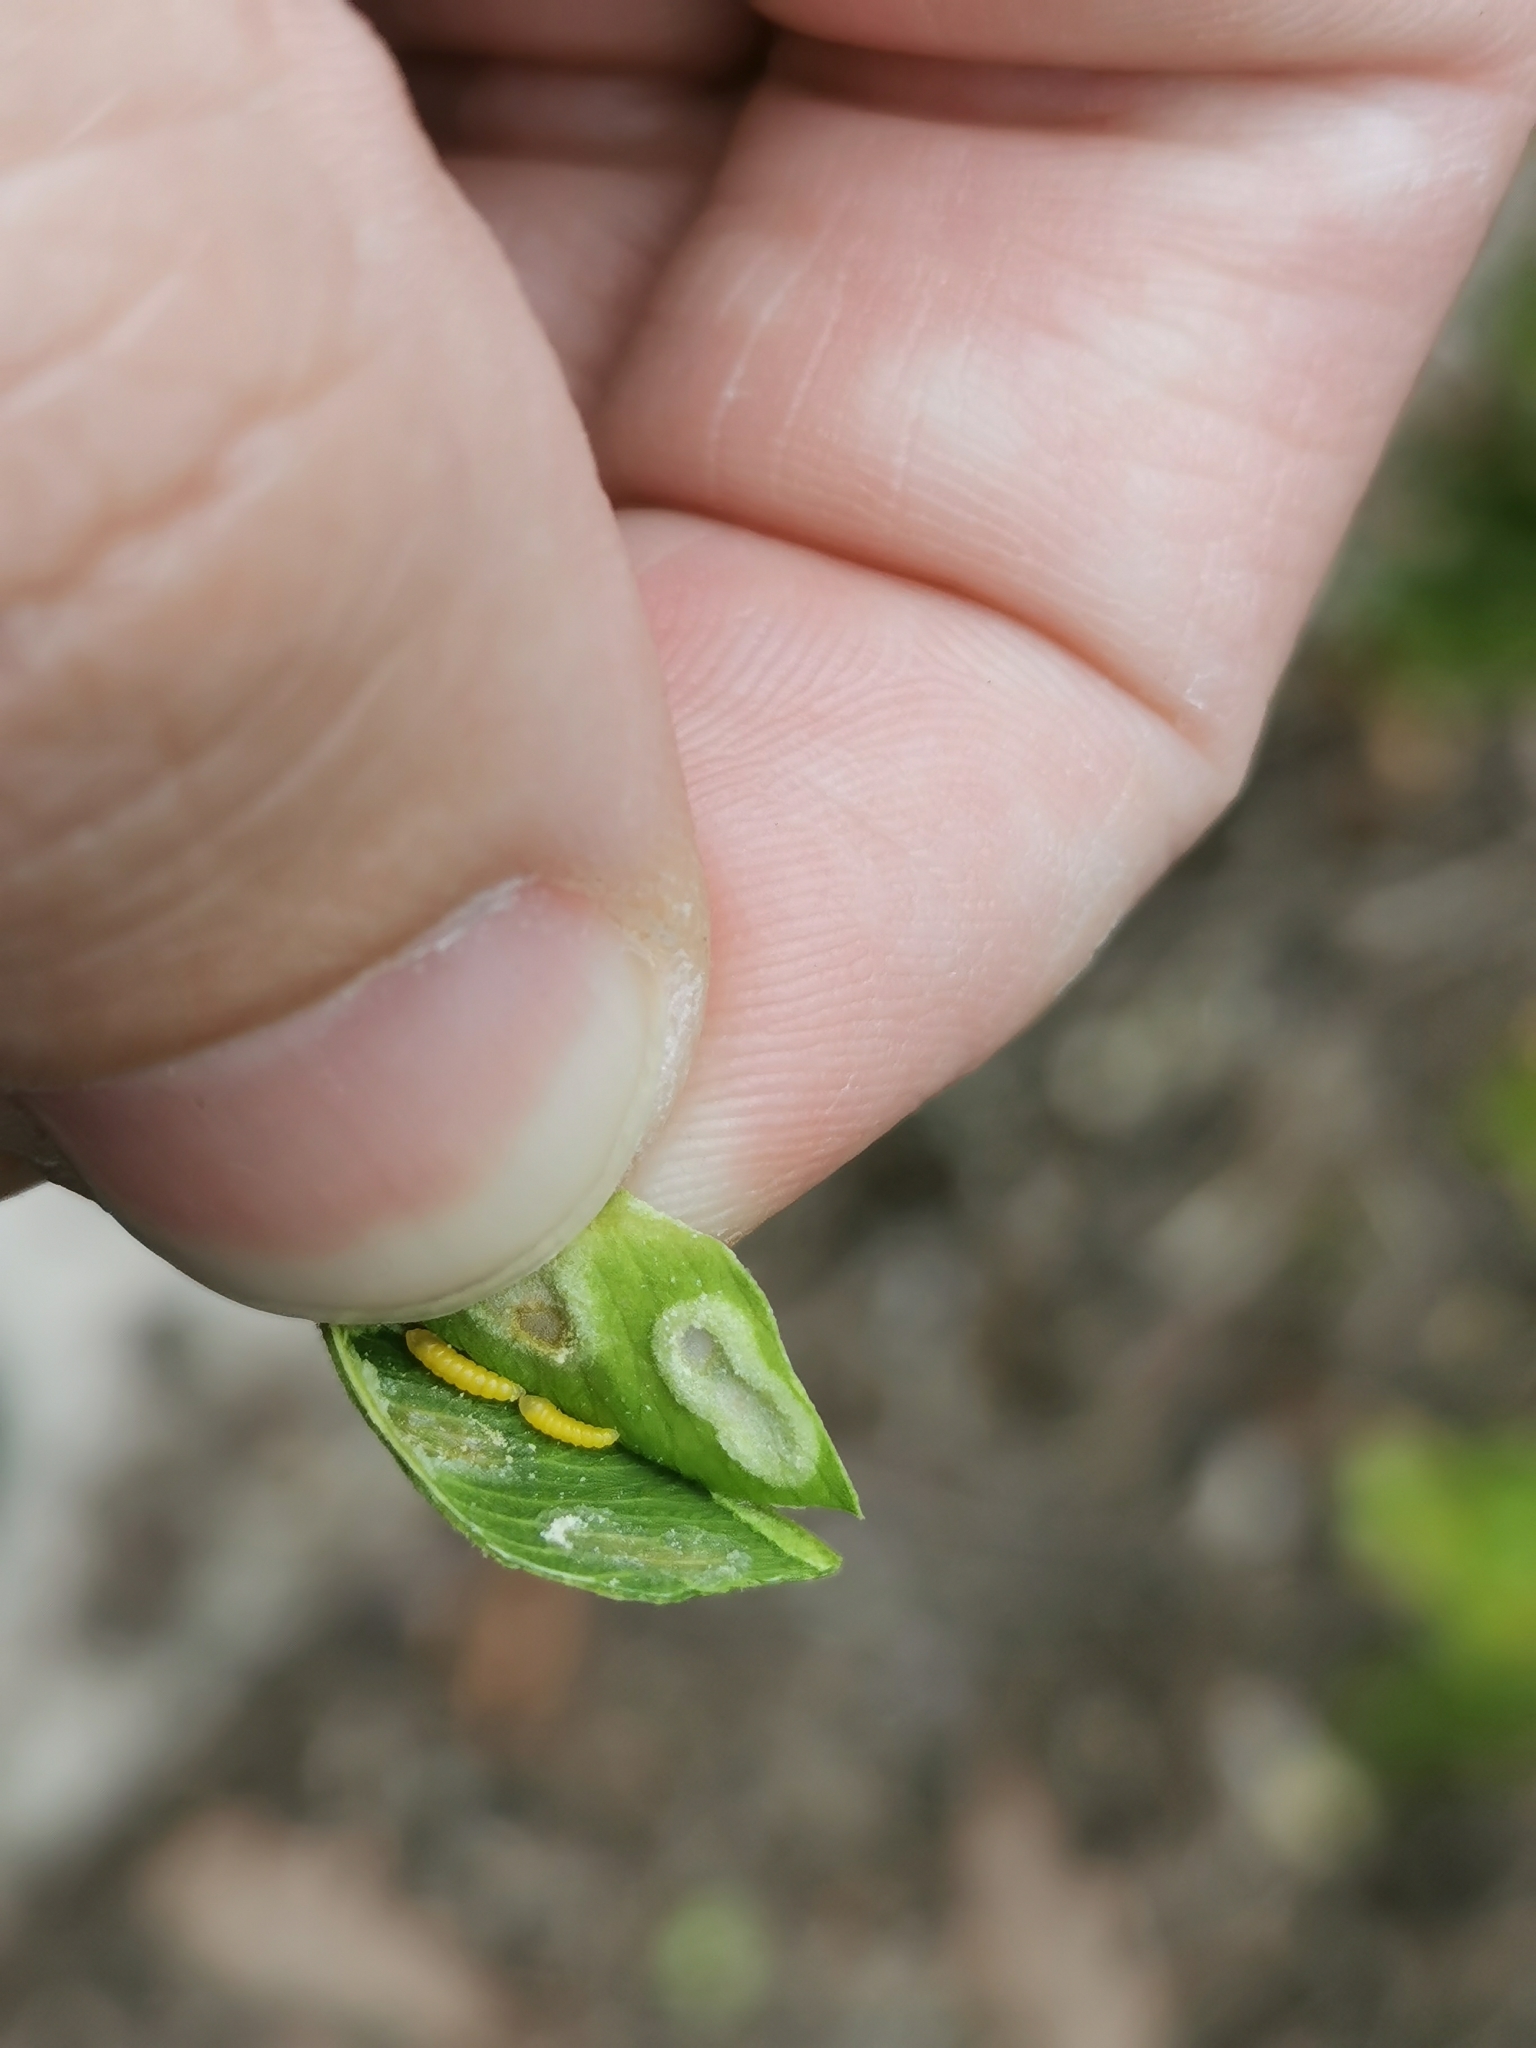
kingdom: Animalia
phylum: Arthropoda
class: Insecta
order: Diptera
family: Cecidomyiidae
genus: Monarthropalpus
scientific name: Monarthropalpus flavus
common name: Boxwood leafminer
